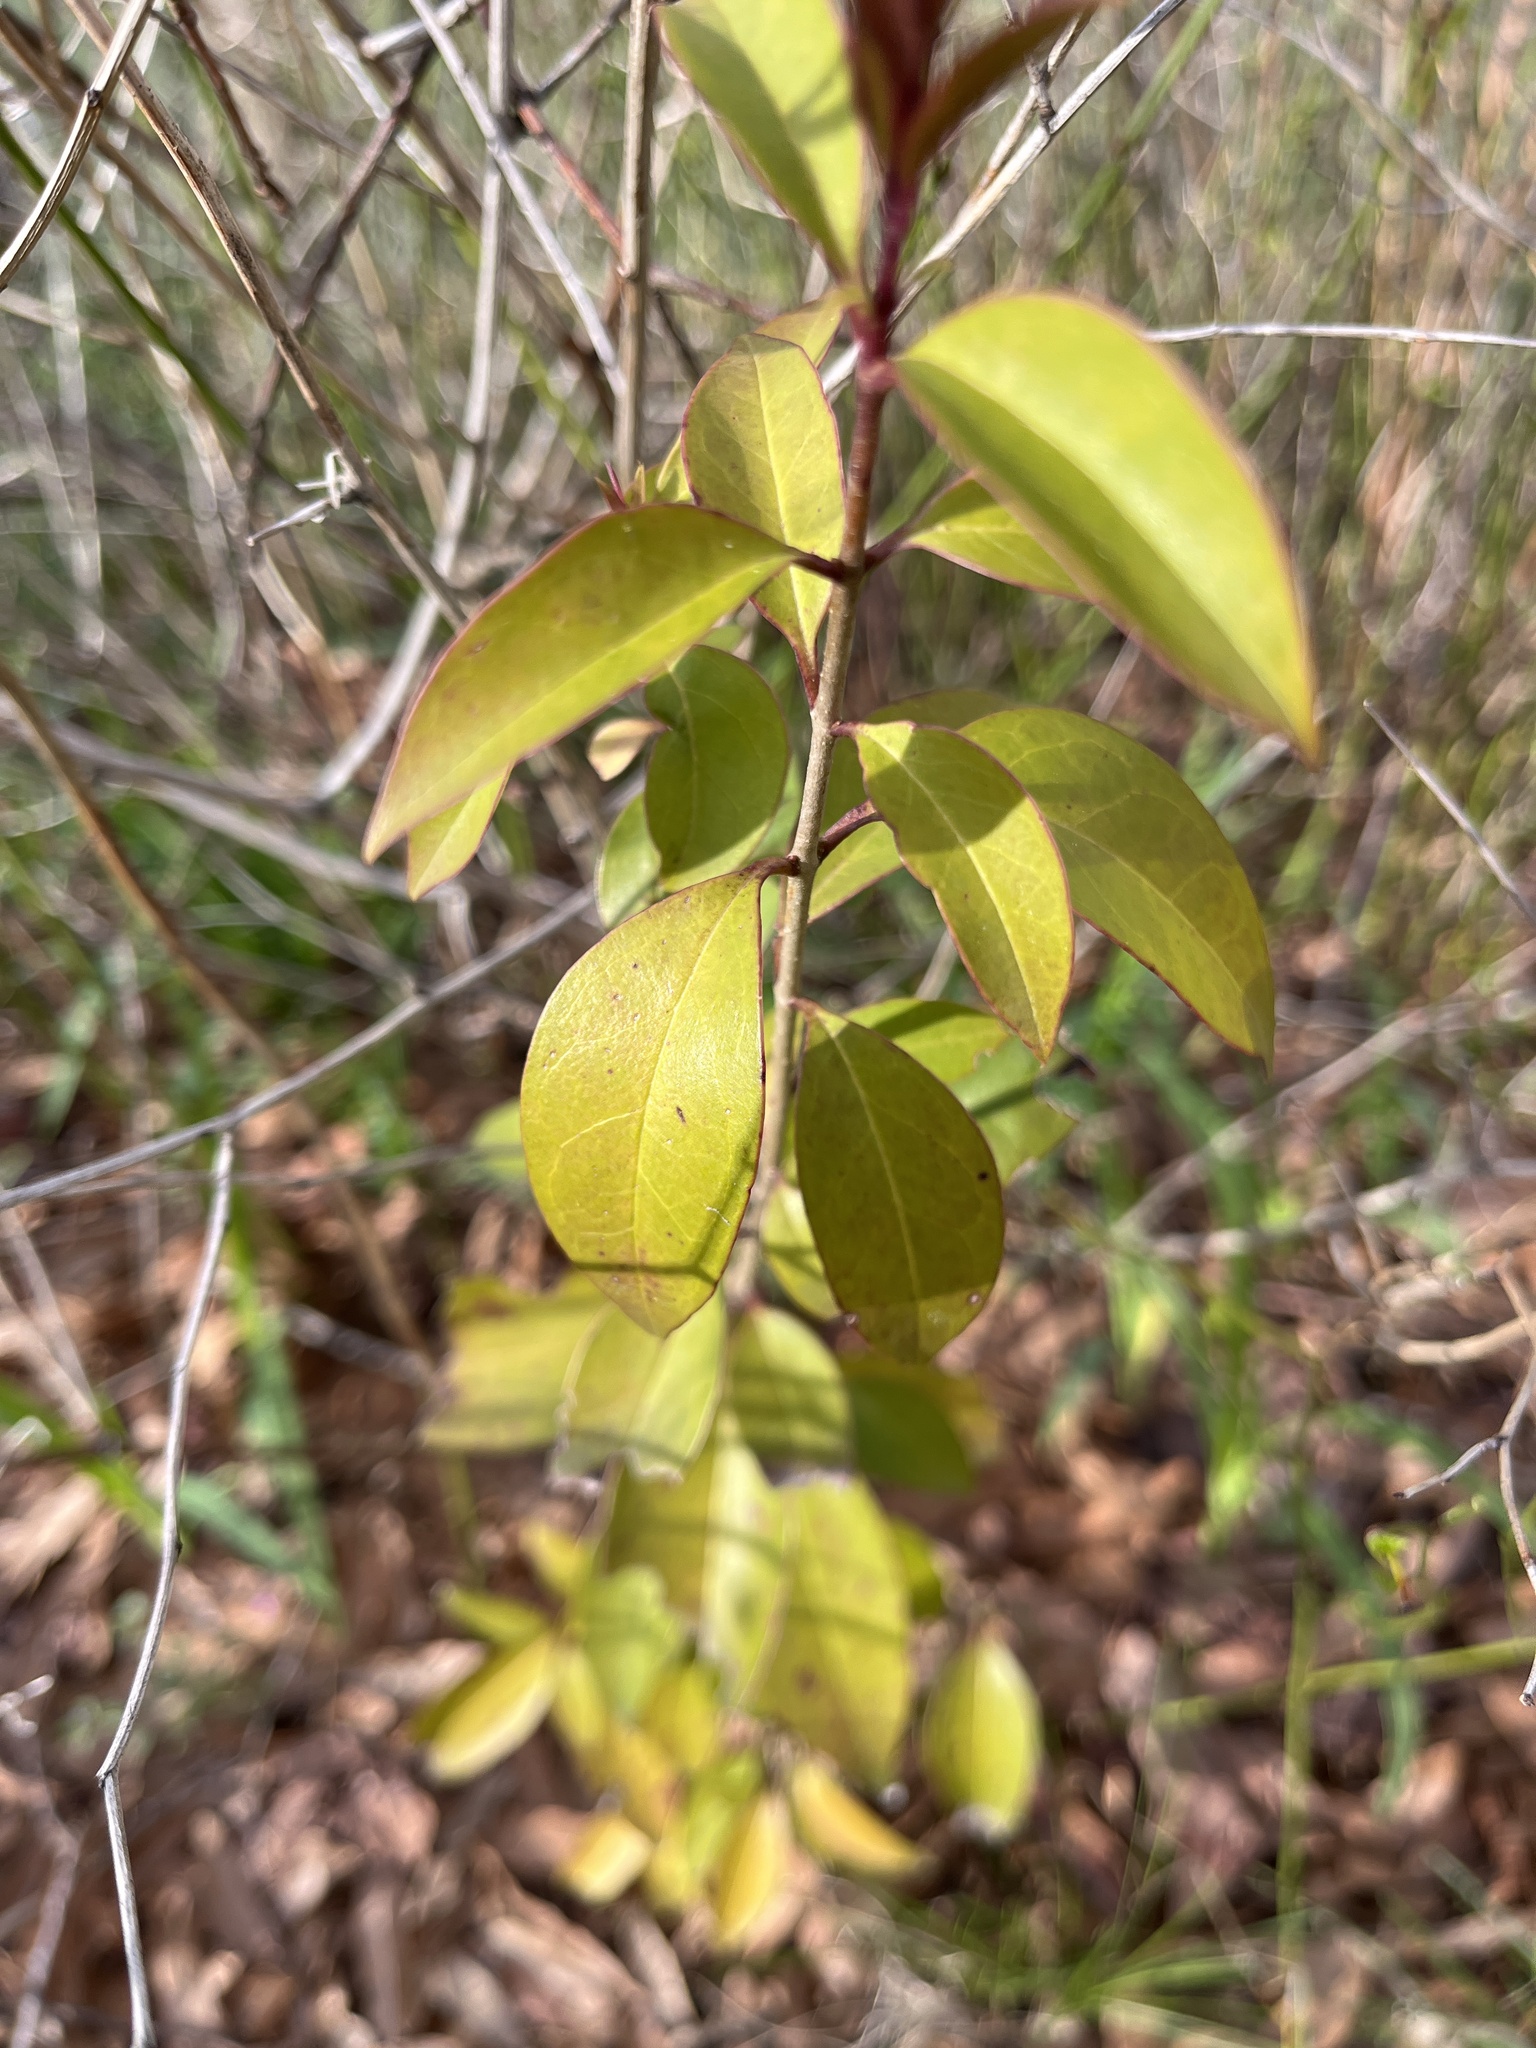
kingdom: Plantae
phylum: Tracheophyta
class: Magnoliopsida
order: Lamiales
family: Oleaceae
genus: Ligustrum
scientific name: Ligustrum lucidum
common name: Glossy privet
